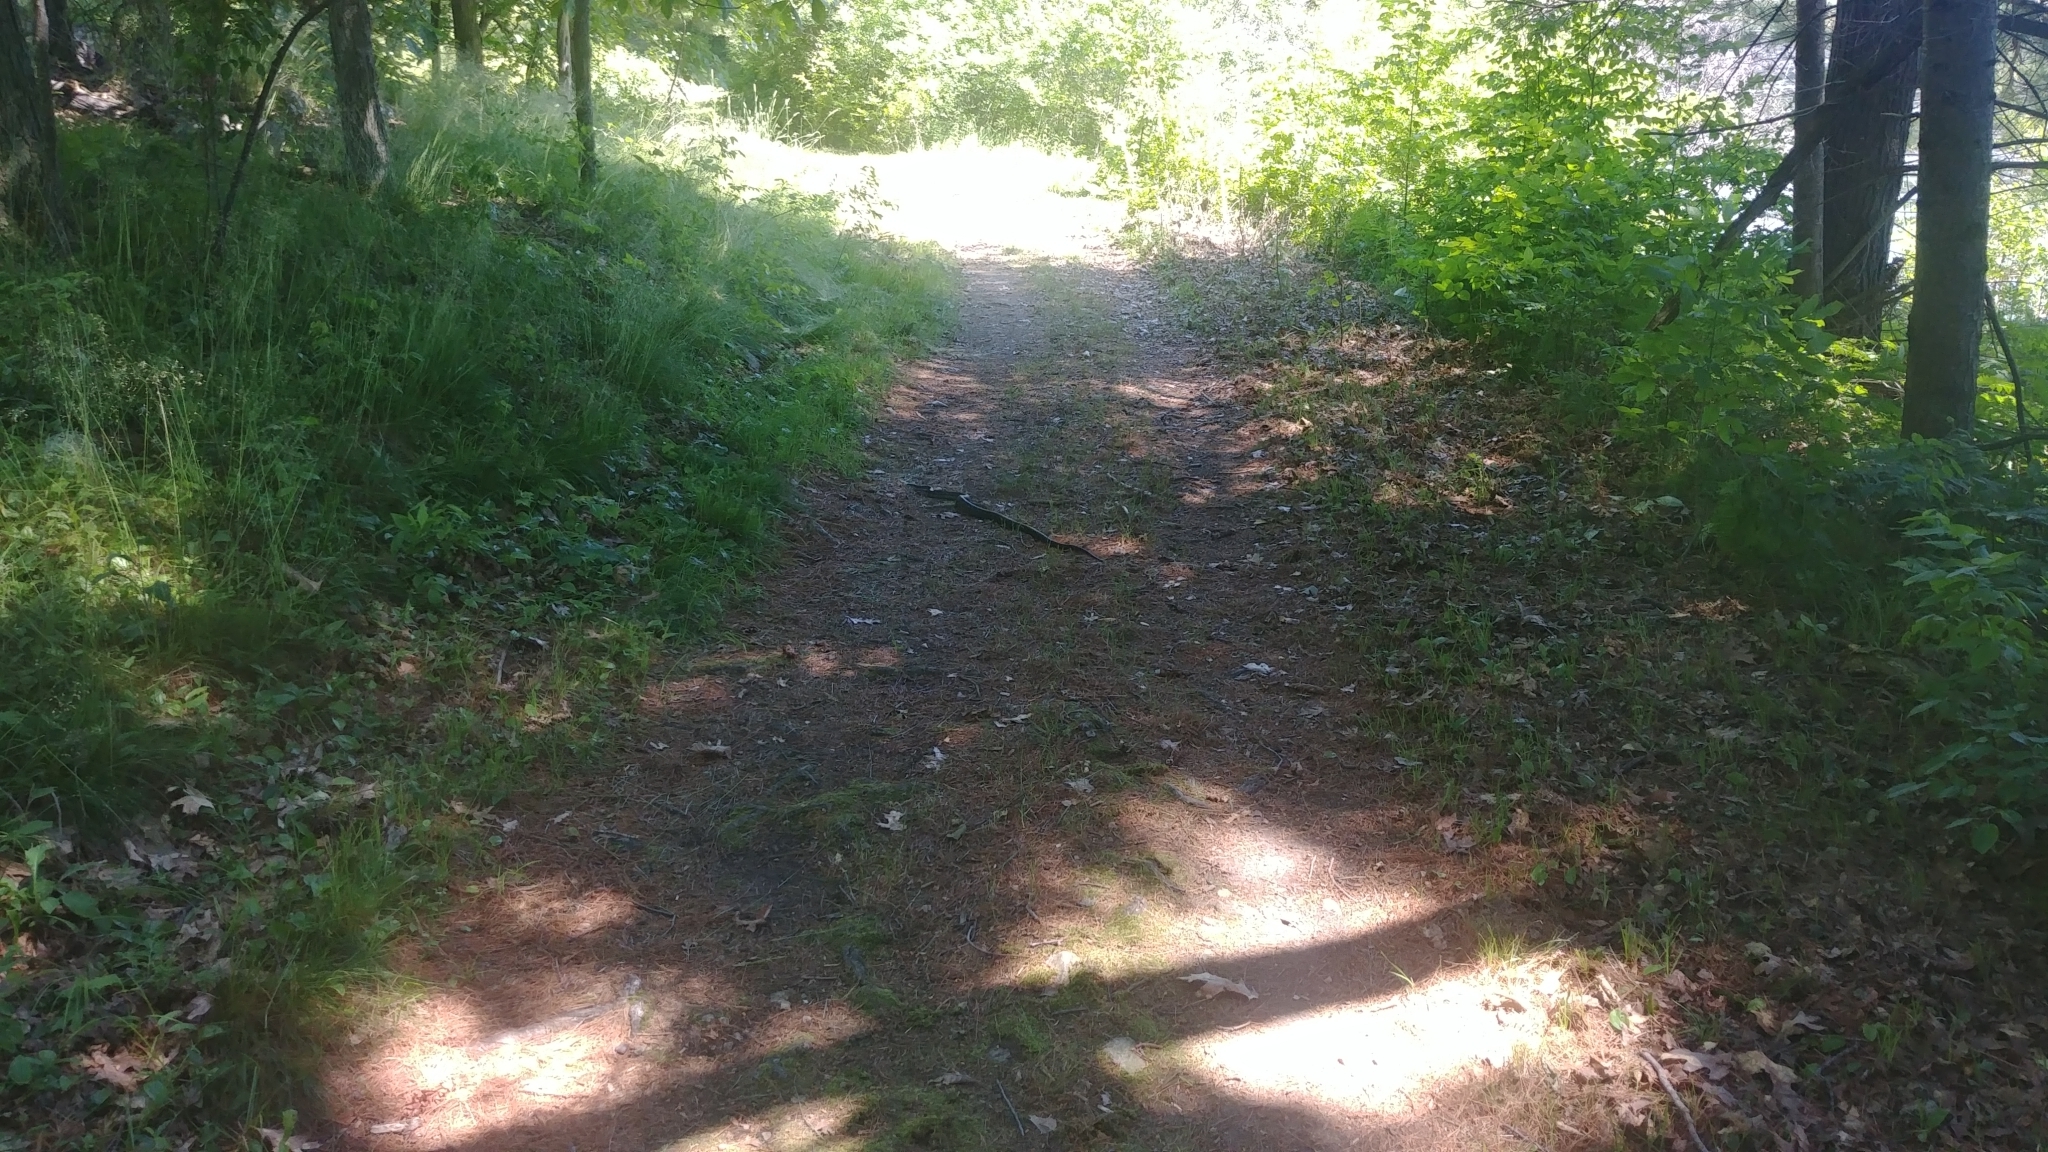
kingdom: Animalia
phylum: Chordata
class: Squamata
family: Colubridae
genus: Pantherophis
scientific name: Pantherophis spiloides
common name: Gray rat snake
